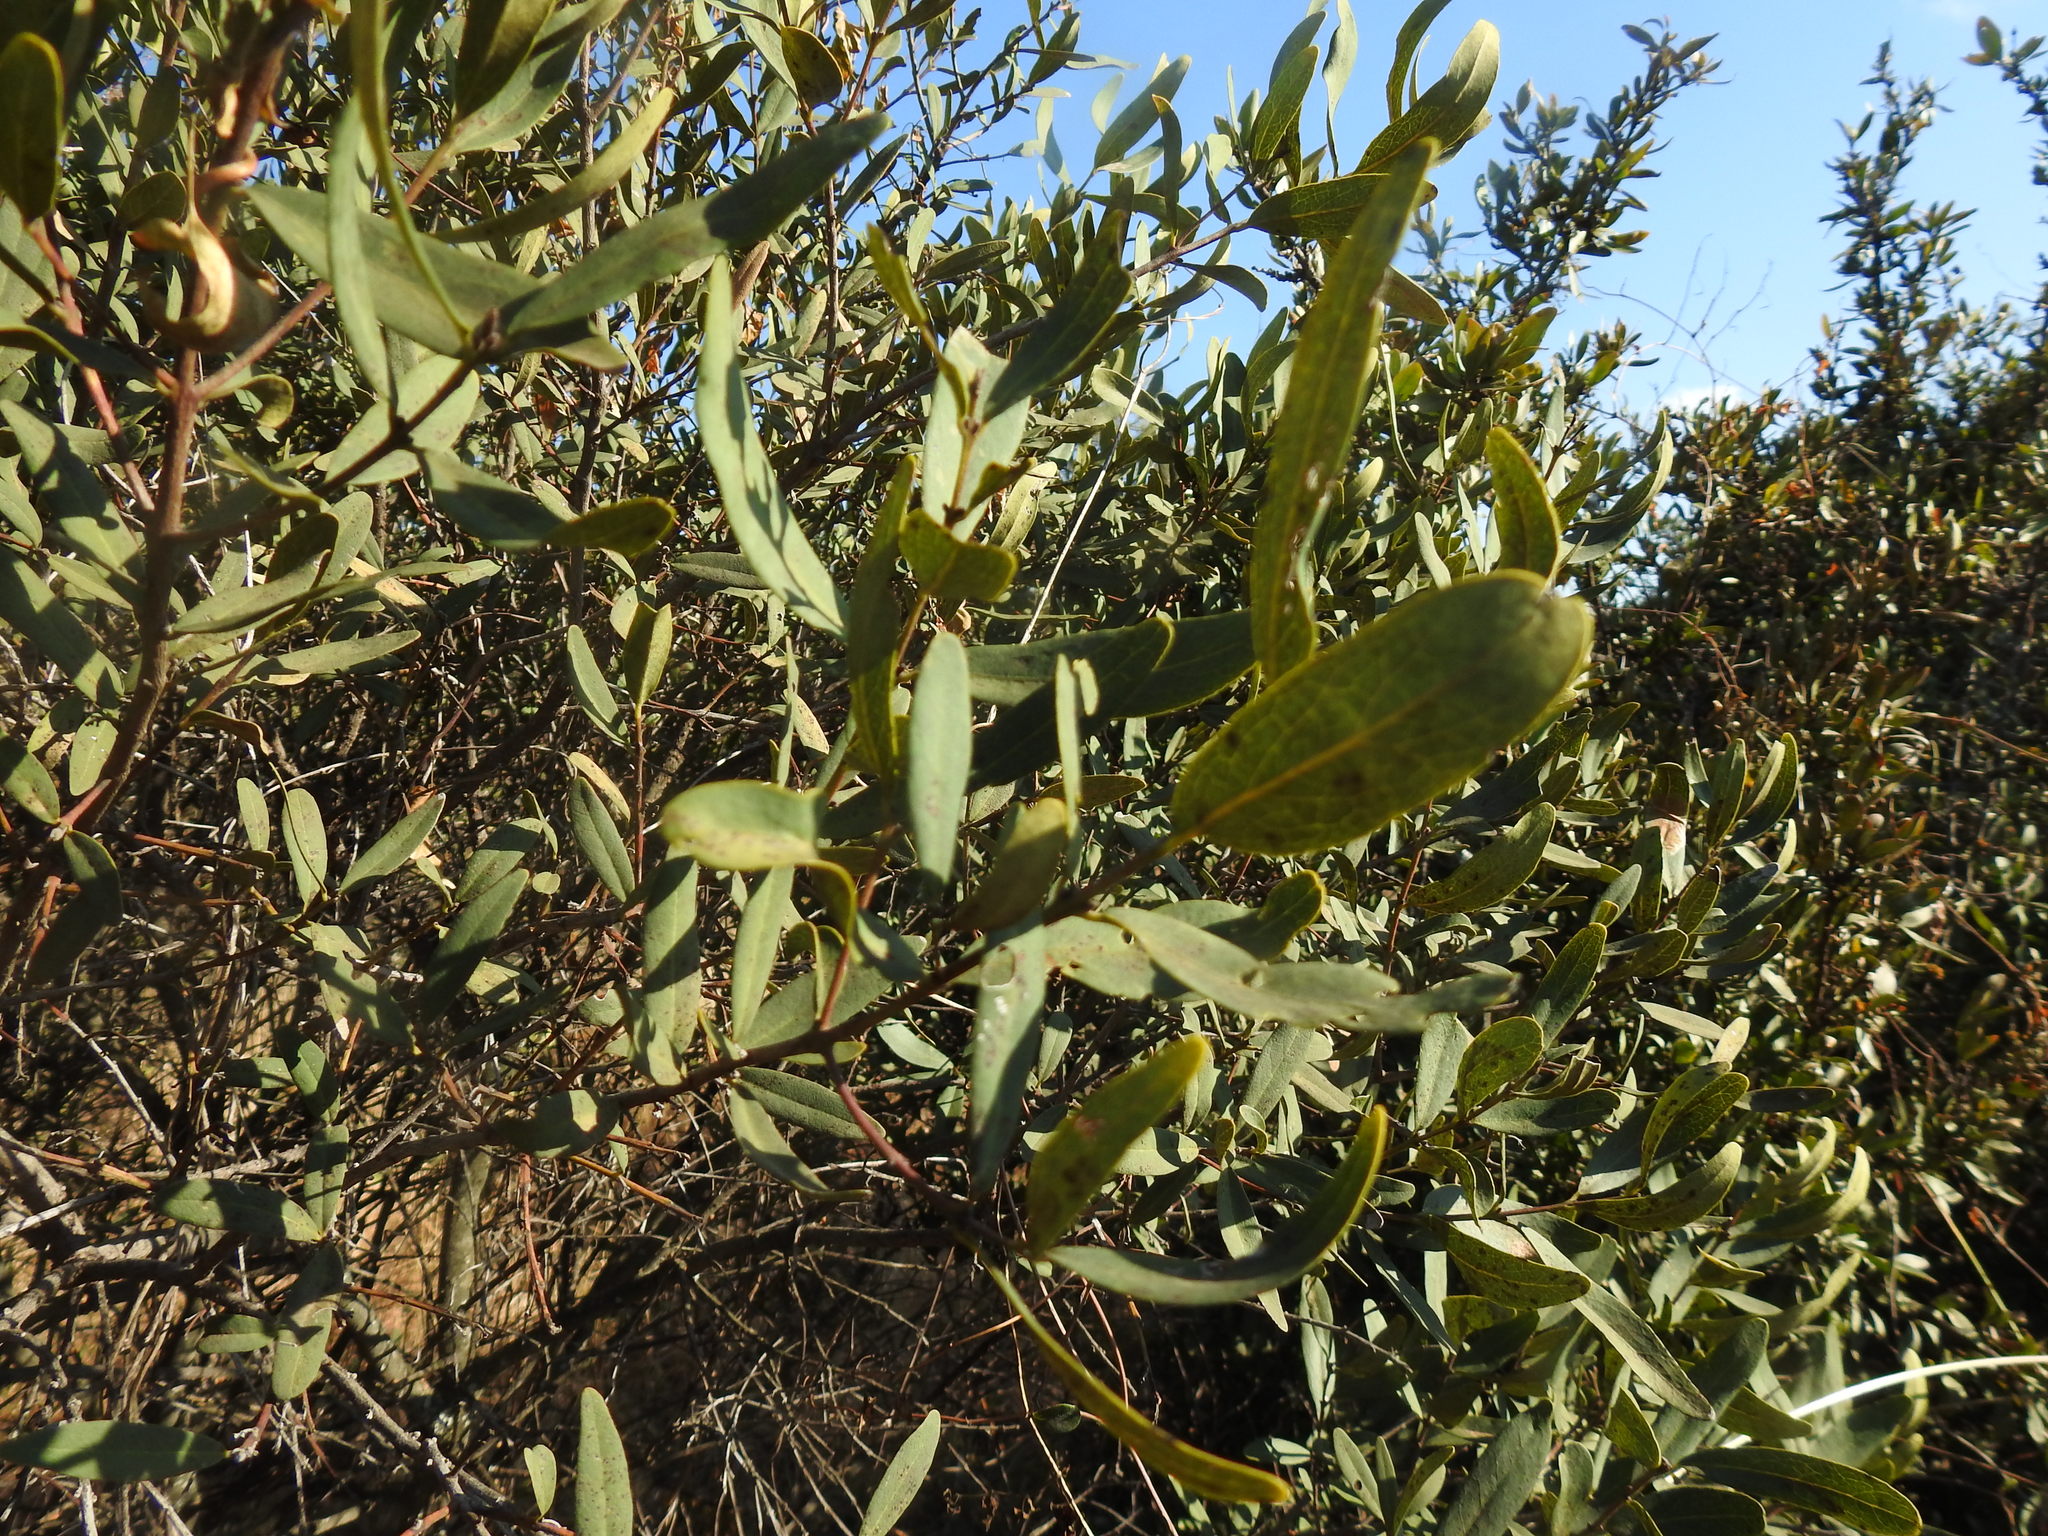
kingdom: Plantae
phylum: Tracheophyta
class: Magnoliopsida
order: Ericales
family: Ebenaceae
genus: Euclea
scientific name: Euclea crispa
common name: Blue guarri
